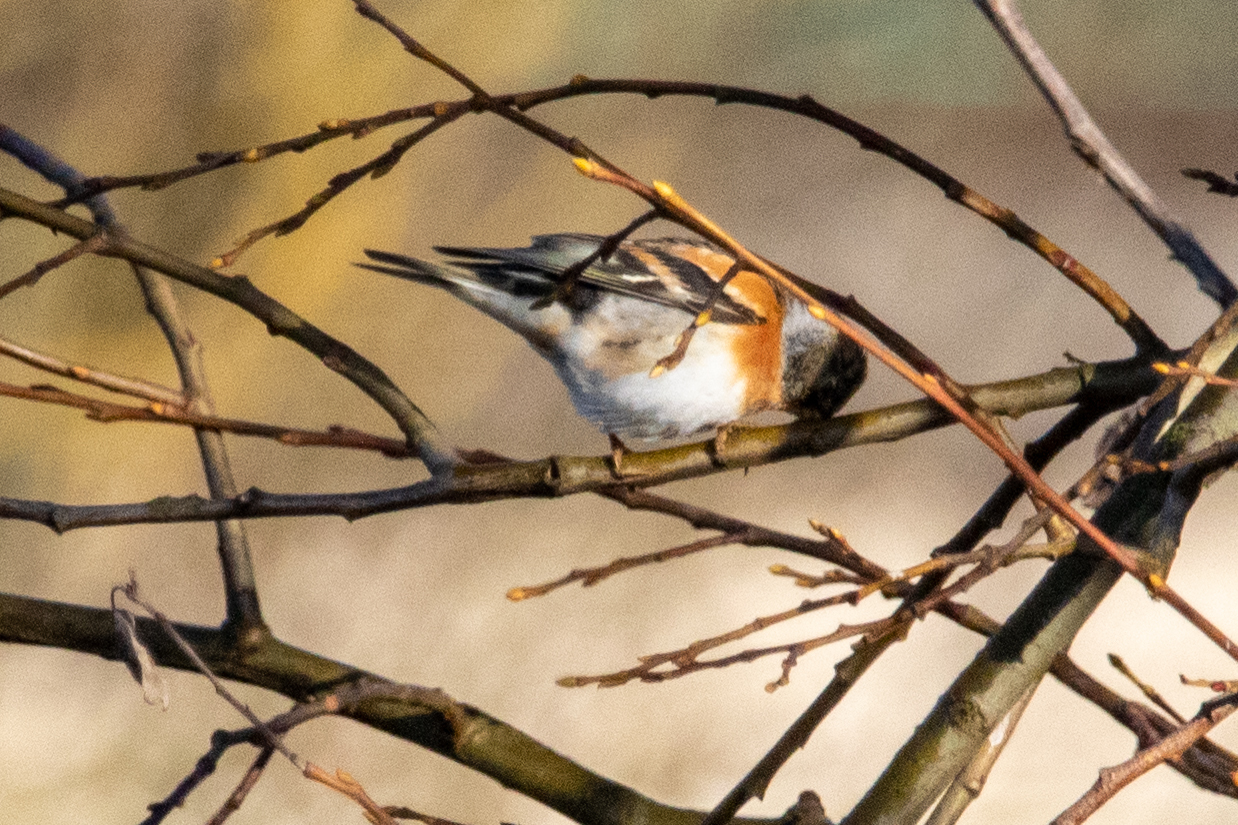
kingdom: Animalia
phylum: Chordata
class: Aves
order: Passeriformes
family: Fringillidae
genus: Fringilla
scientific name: Fringilla montifringilla
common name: Brambling
